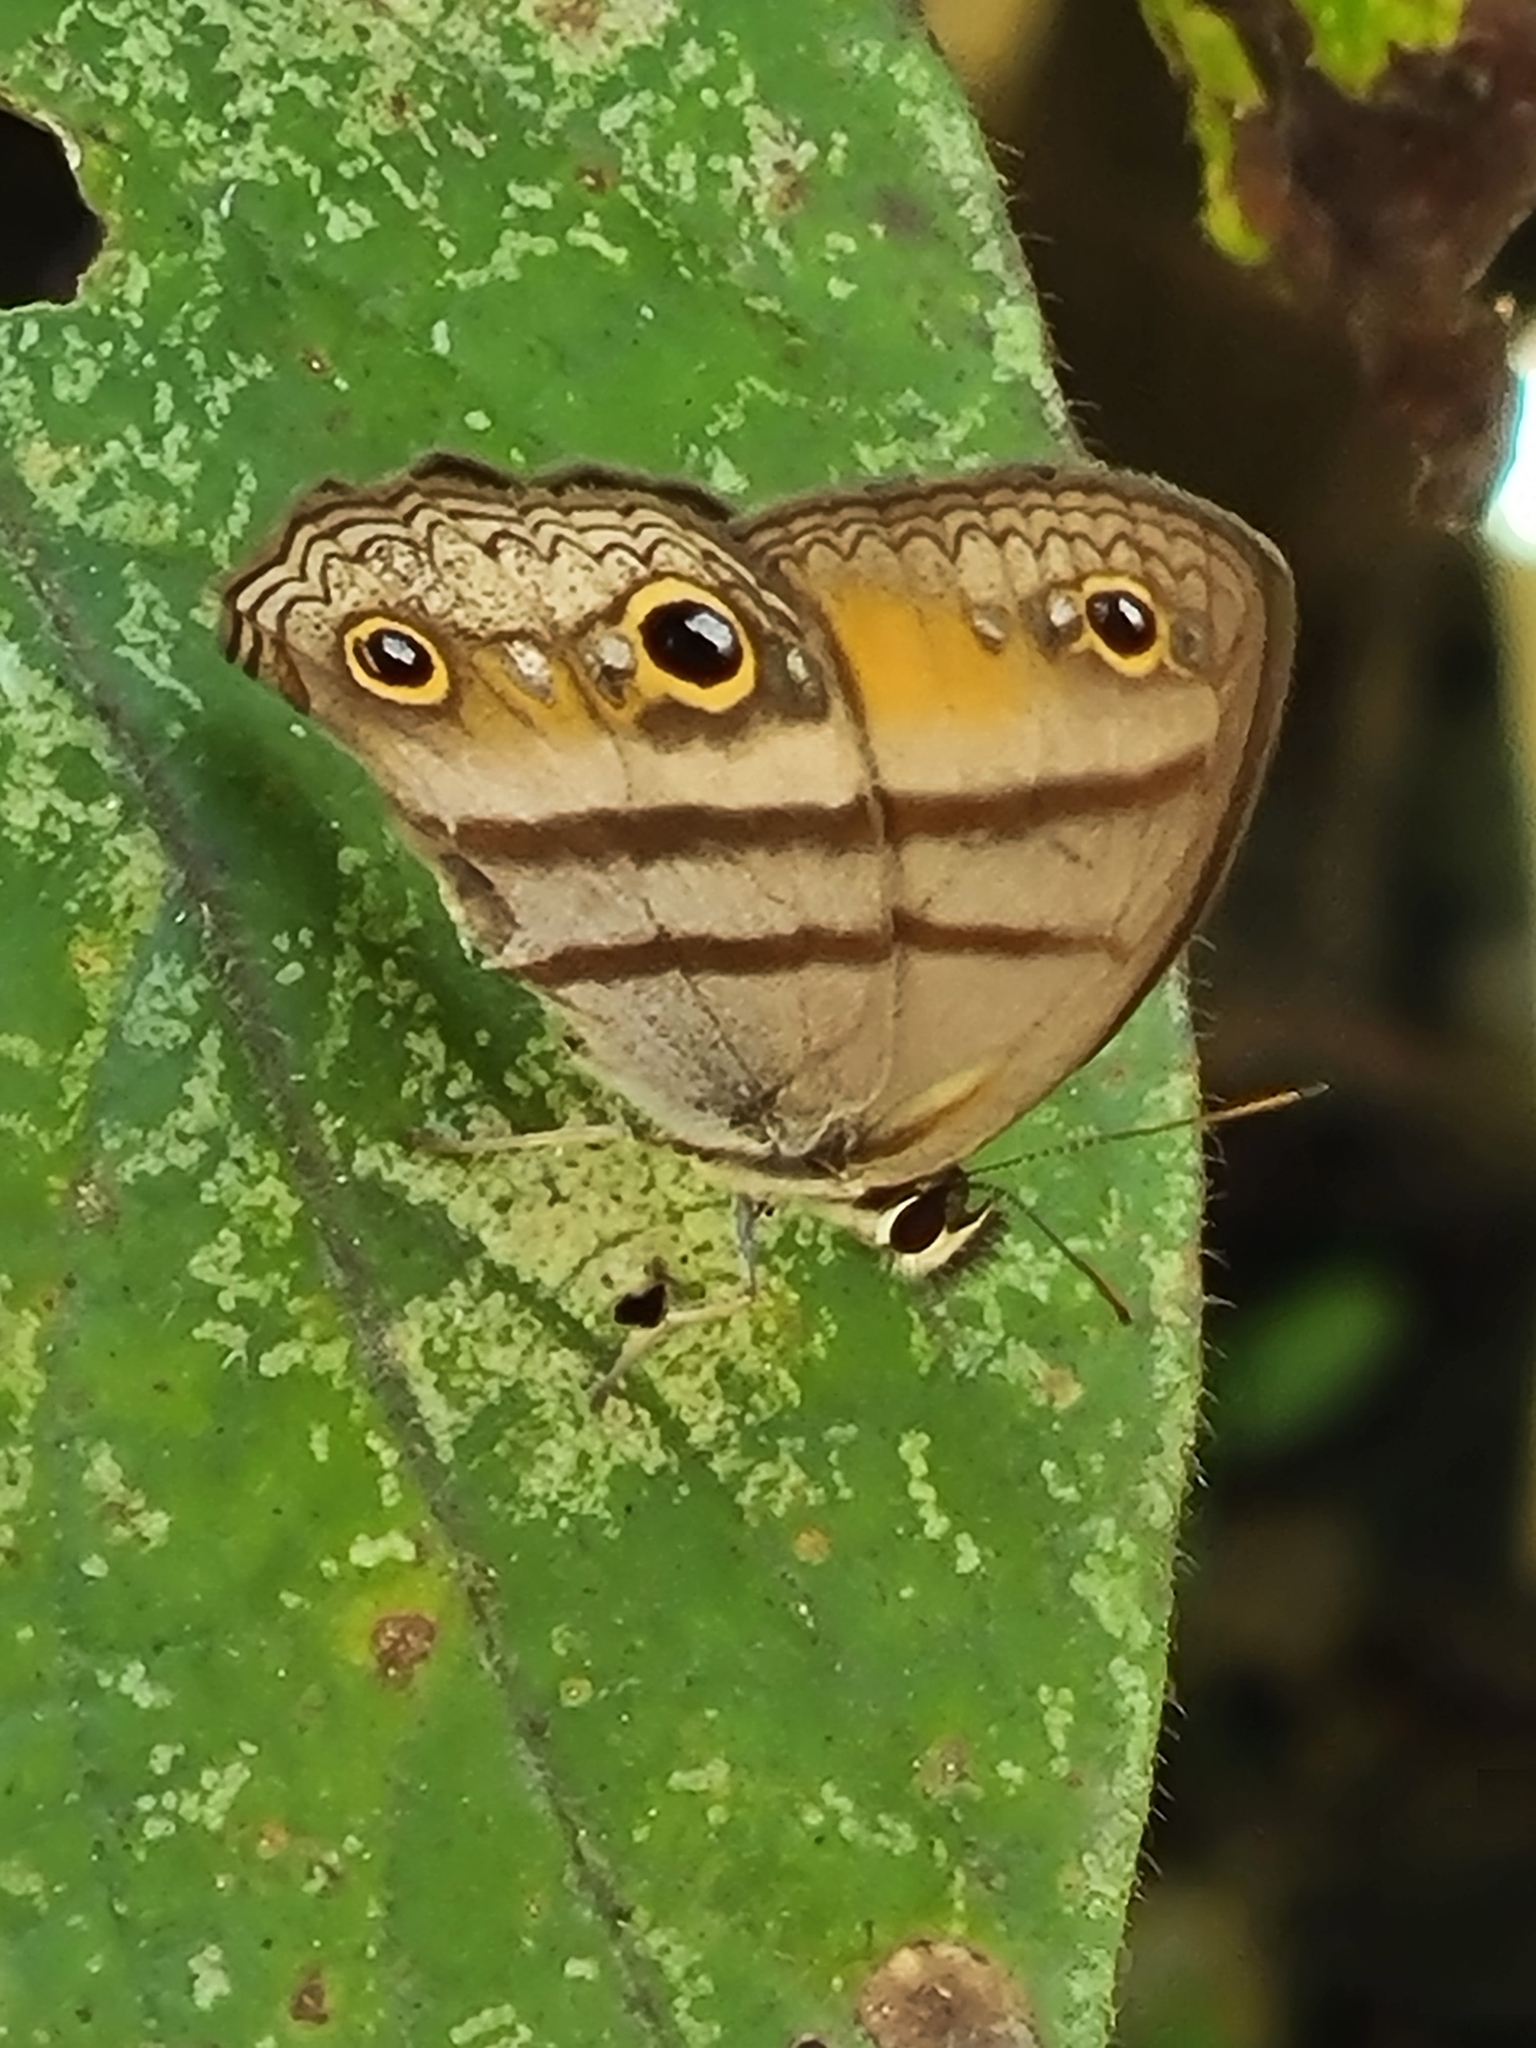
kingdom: Animalia
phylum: Arthropoda
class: Insecta
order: Lepidoptera
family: Nymphalidae
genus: Argyreuptychia
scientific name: Argyreuptychia penelope
